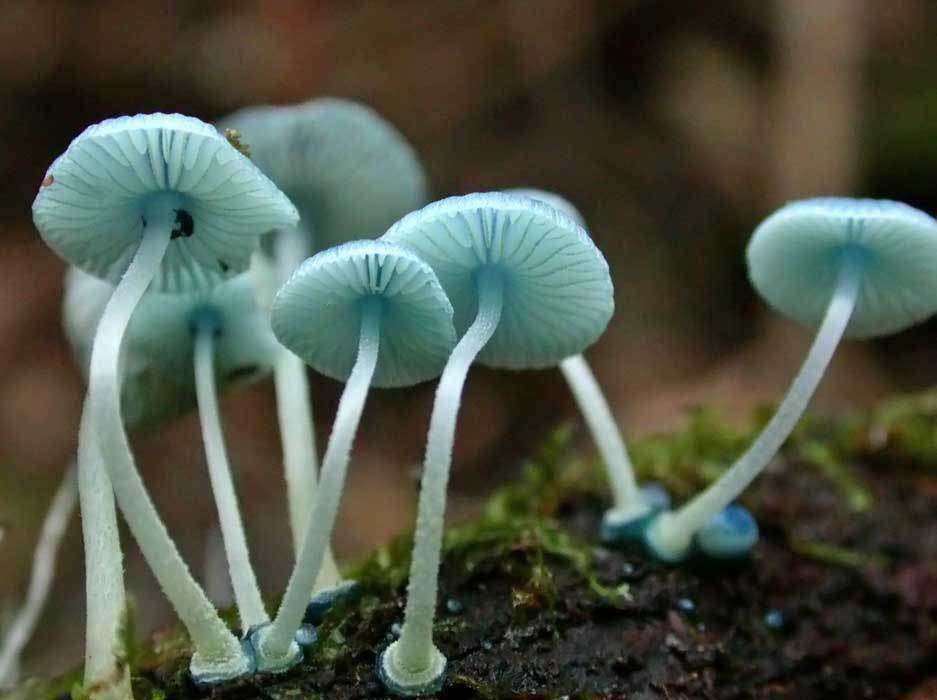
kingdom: Fungi
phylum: Basidiomycota
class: Agaricomycetes
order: Agaricales
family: Mycenaceae
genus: Mycena
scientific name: Mycena interrupta
